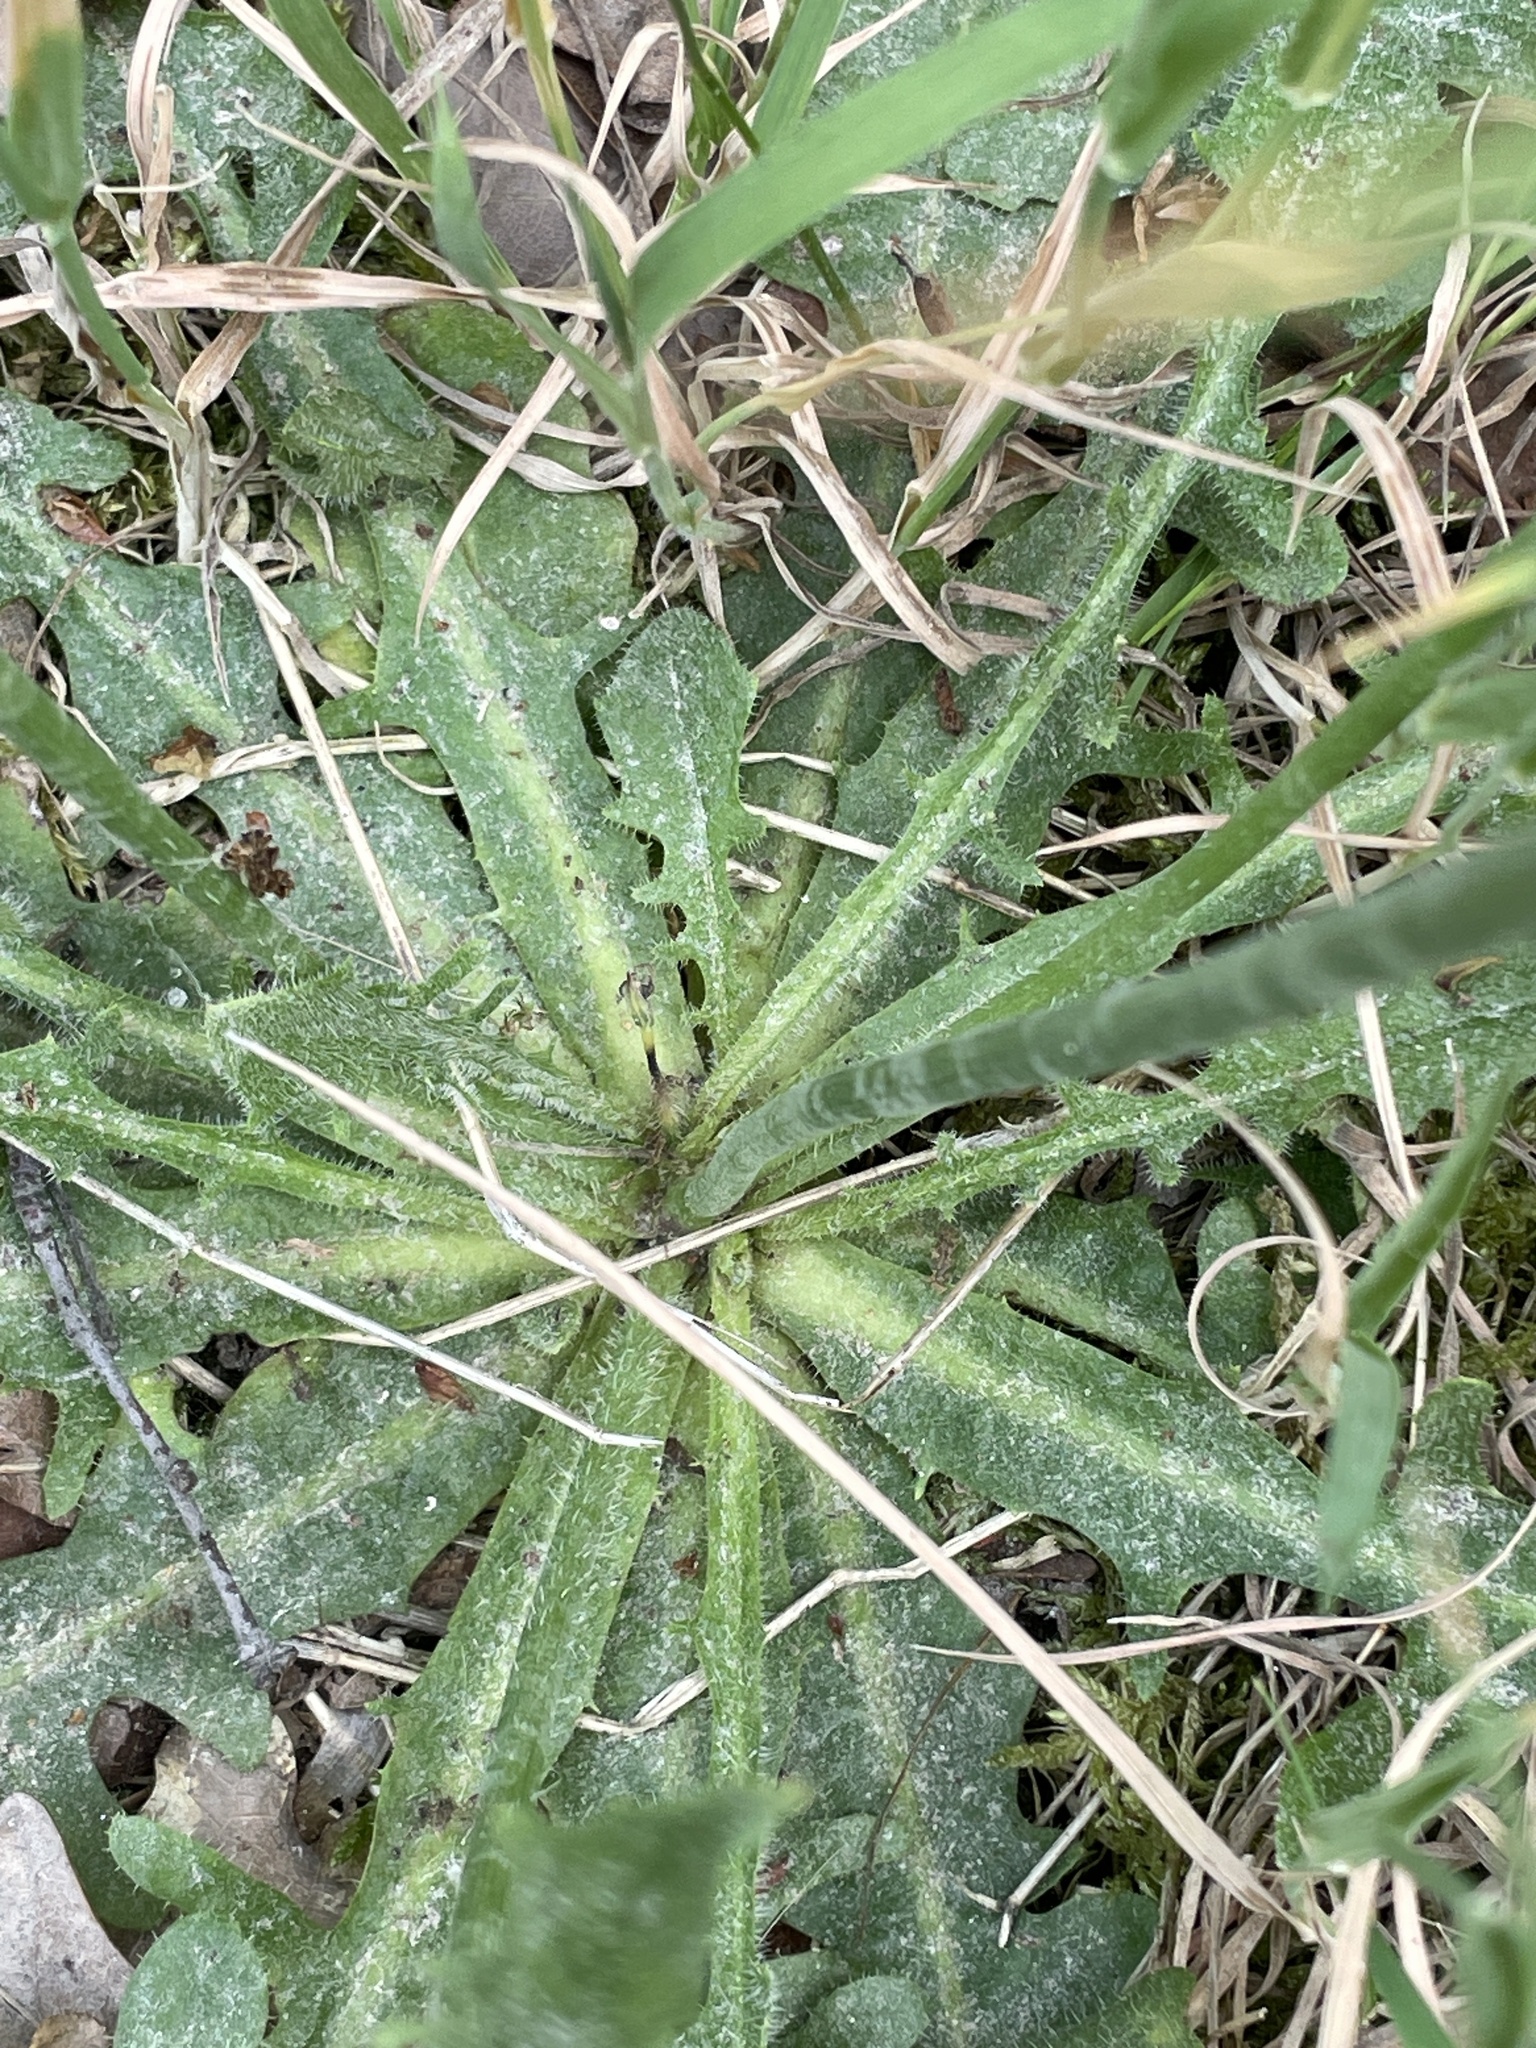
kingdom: Plantae
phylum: Tracheophyta
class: Magnoliopsida
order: Asterales
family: Asteraceae
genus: Hypochaeris
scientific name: Hypochaeris radicata
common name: Flatweed
